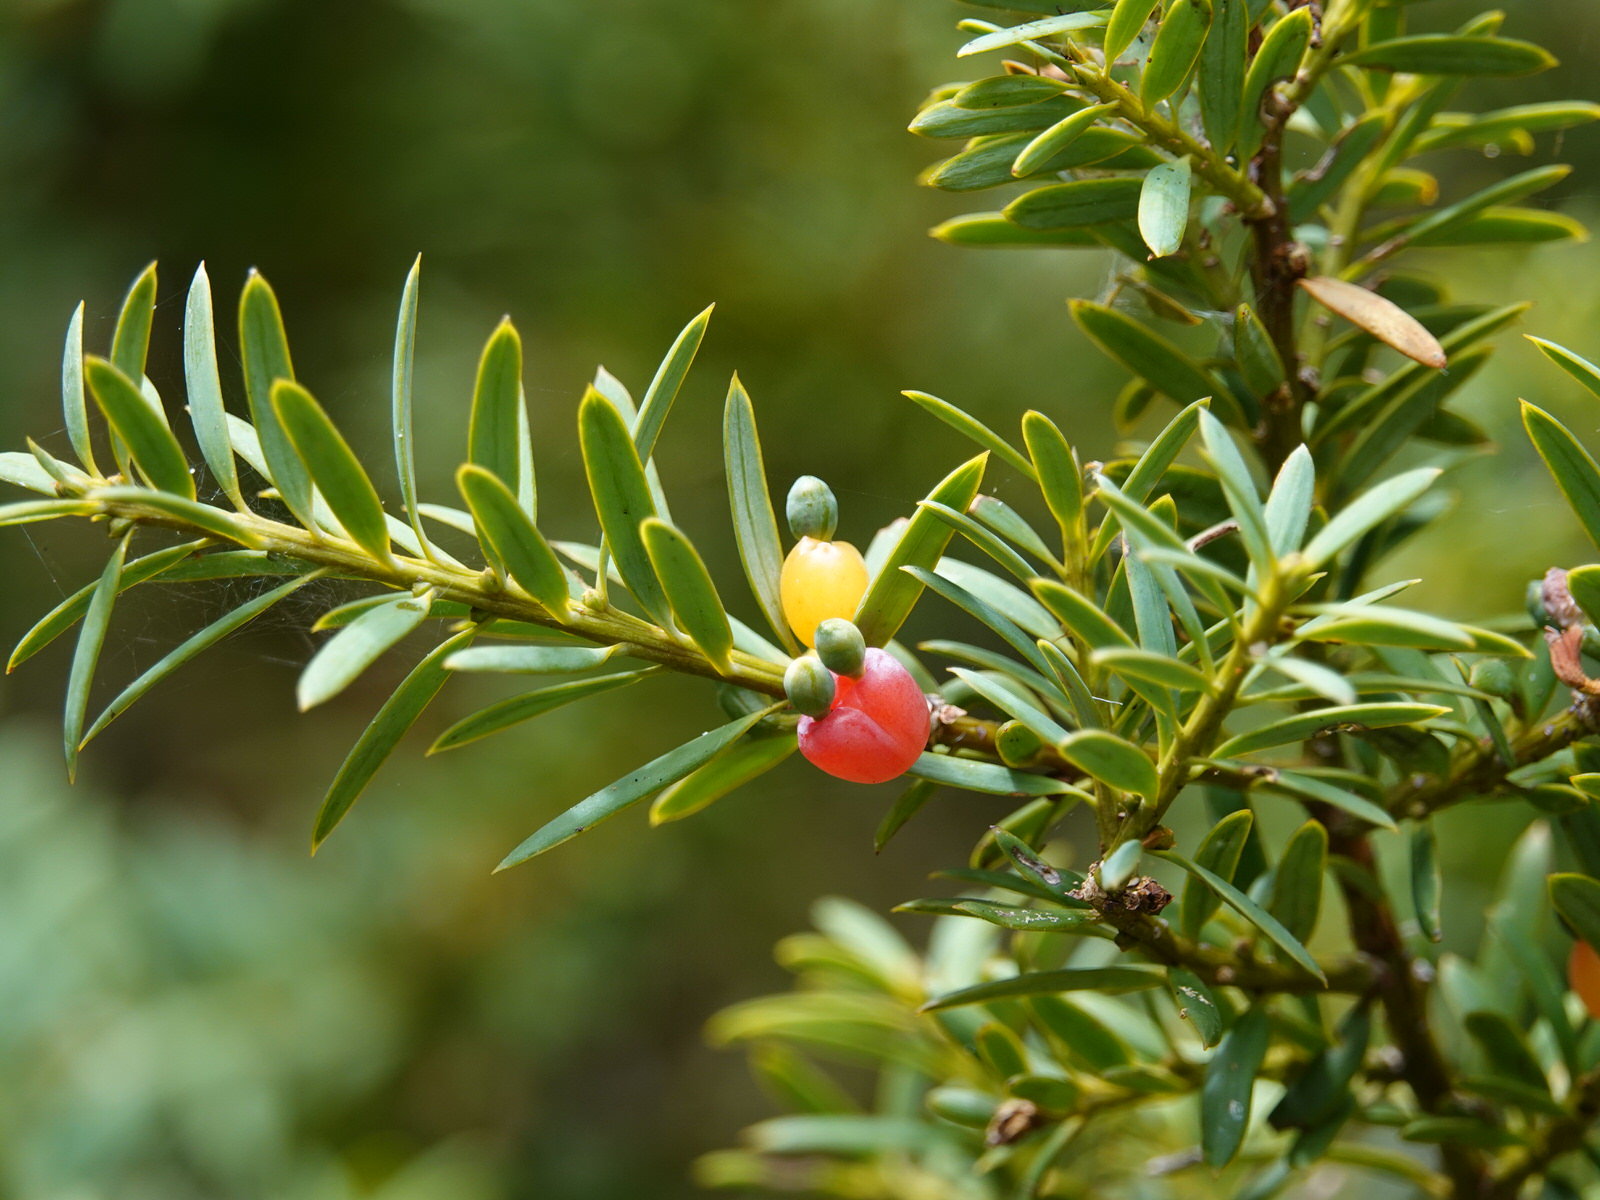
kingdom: Plantae
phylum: Tracheophyta
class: Pinopsida
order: Pinales
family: Podocarpaceae
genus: Podocarpus
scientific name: Podocarpus totara
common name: Totara
